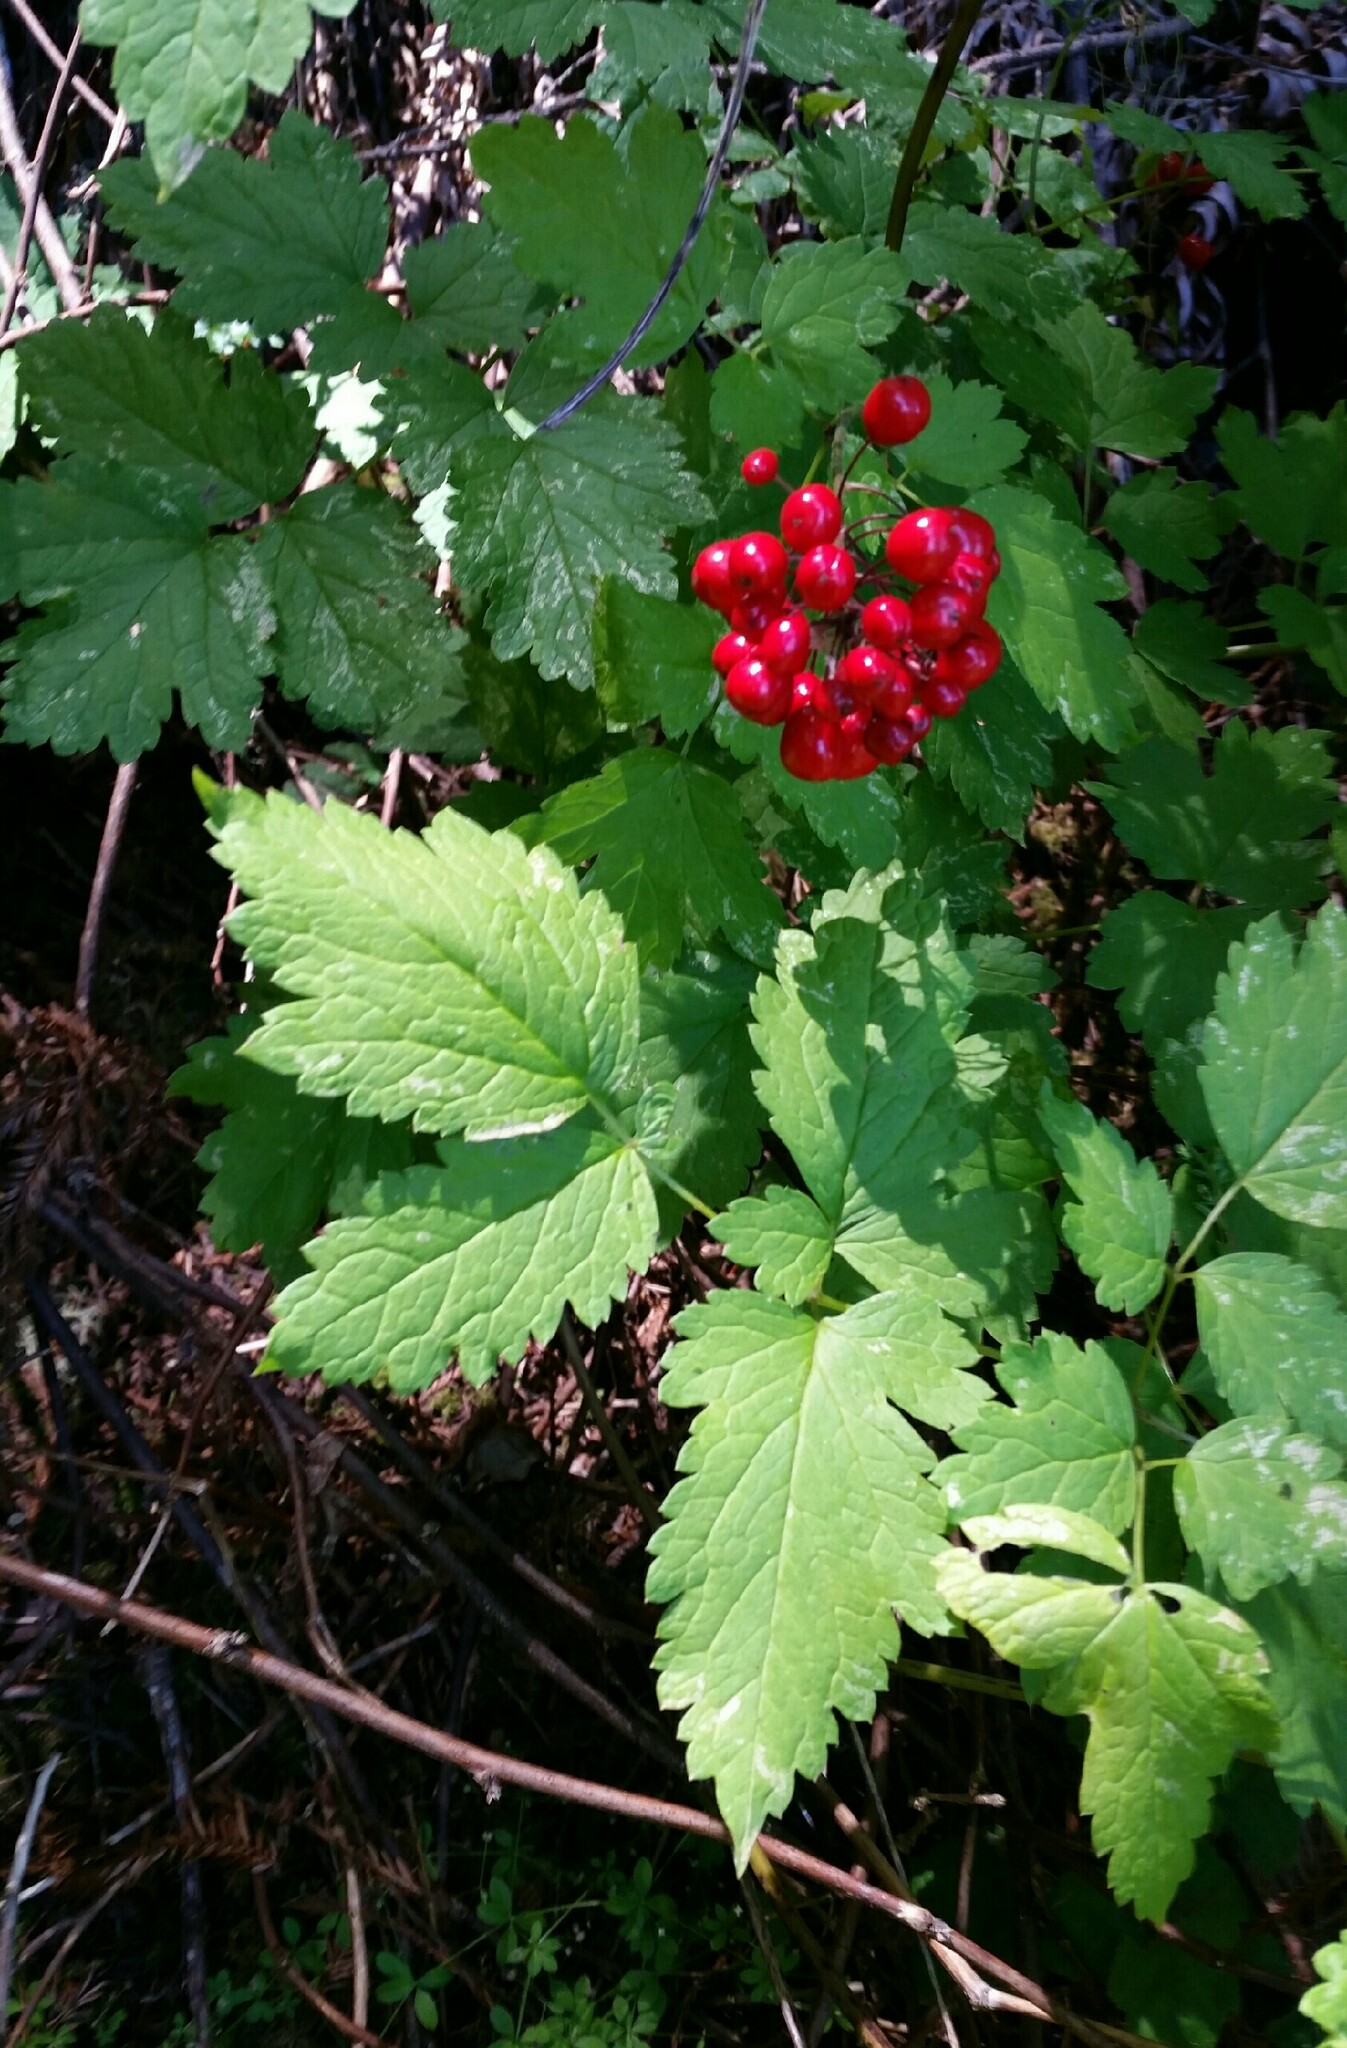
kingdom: Plantae
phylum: Tracheophyta
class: Magnoliopsida
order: Ranunculales
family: Ranunculaceae
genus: Actaea
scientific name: Actaea rubra
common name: Red baneberry
